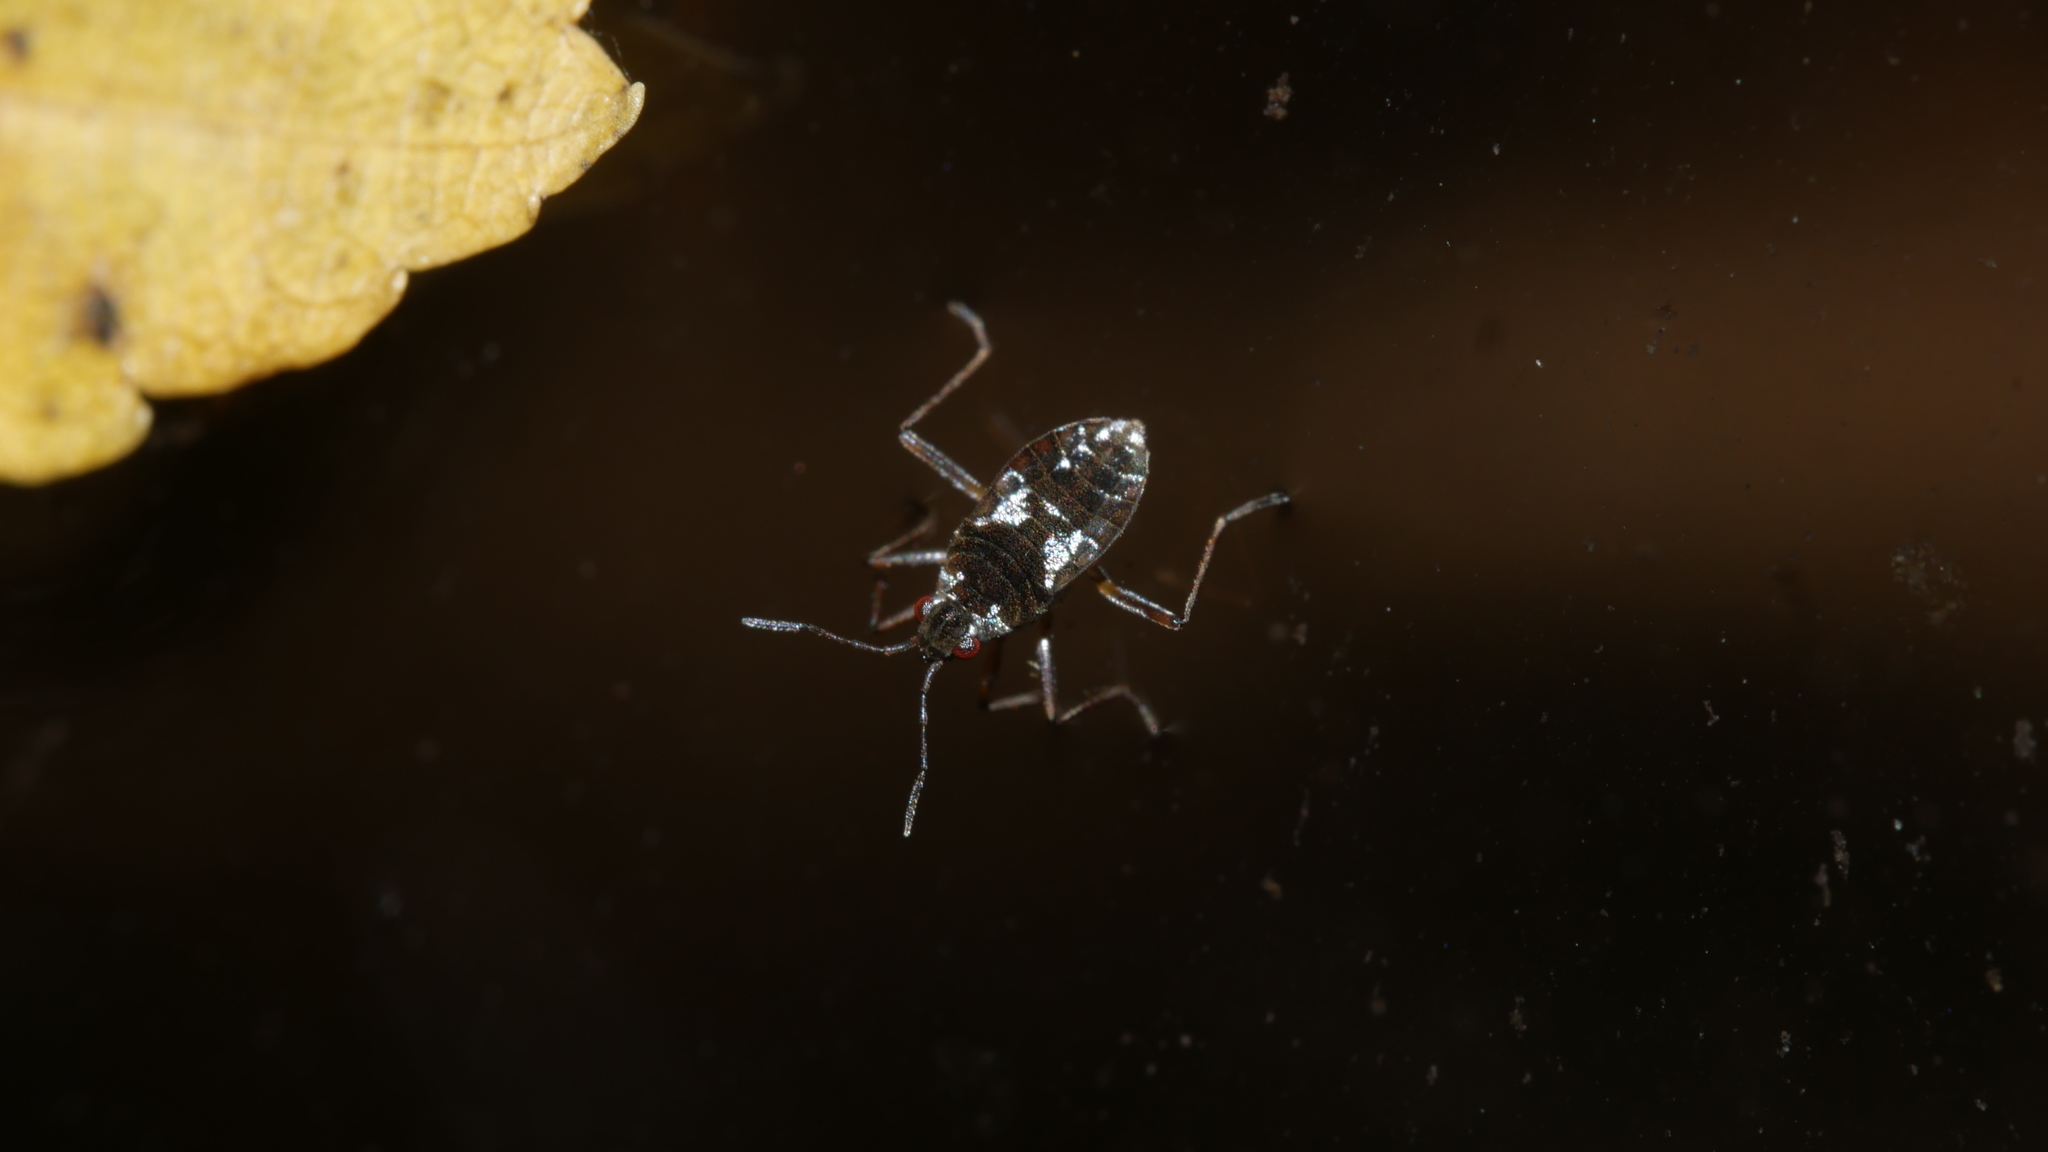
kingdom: Animalia
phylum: Arthropoda
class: Insecta
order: Hemiptera
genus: Kirkaldya
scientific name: Kirkaldya
